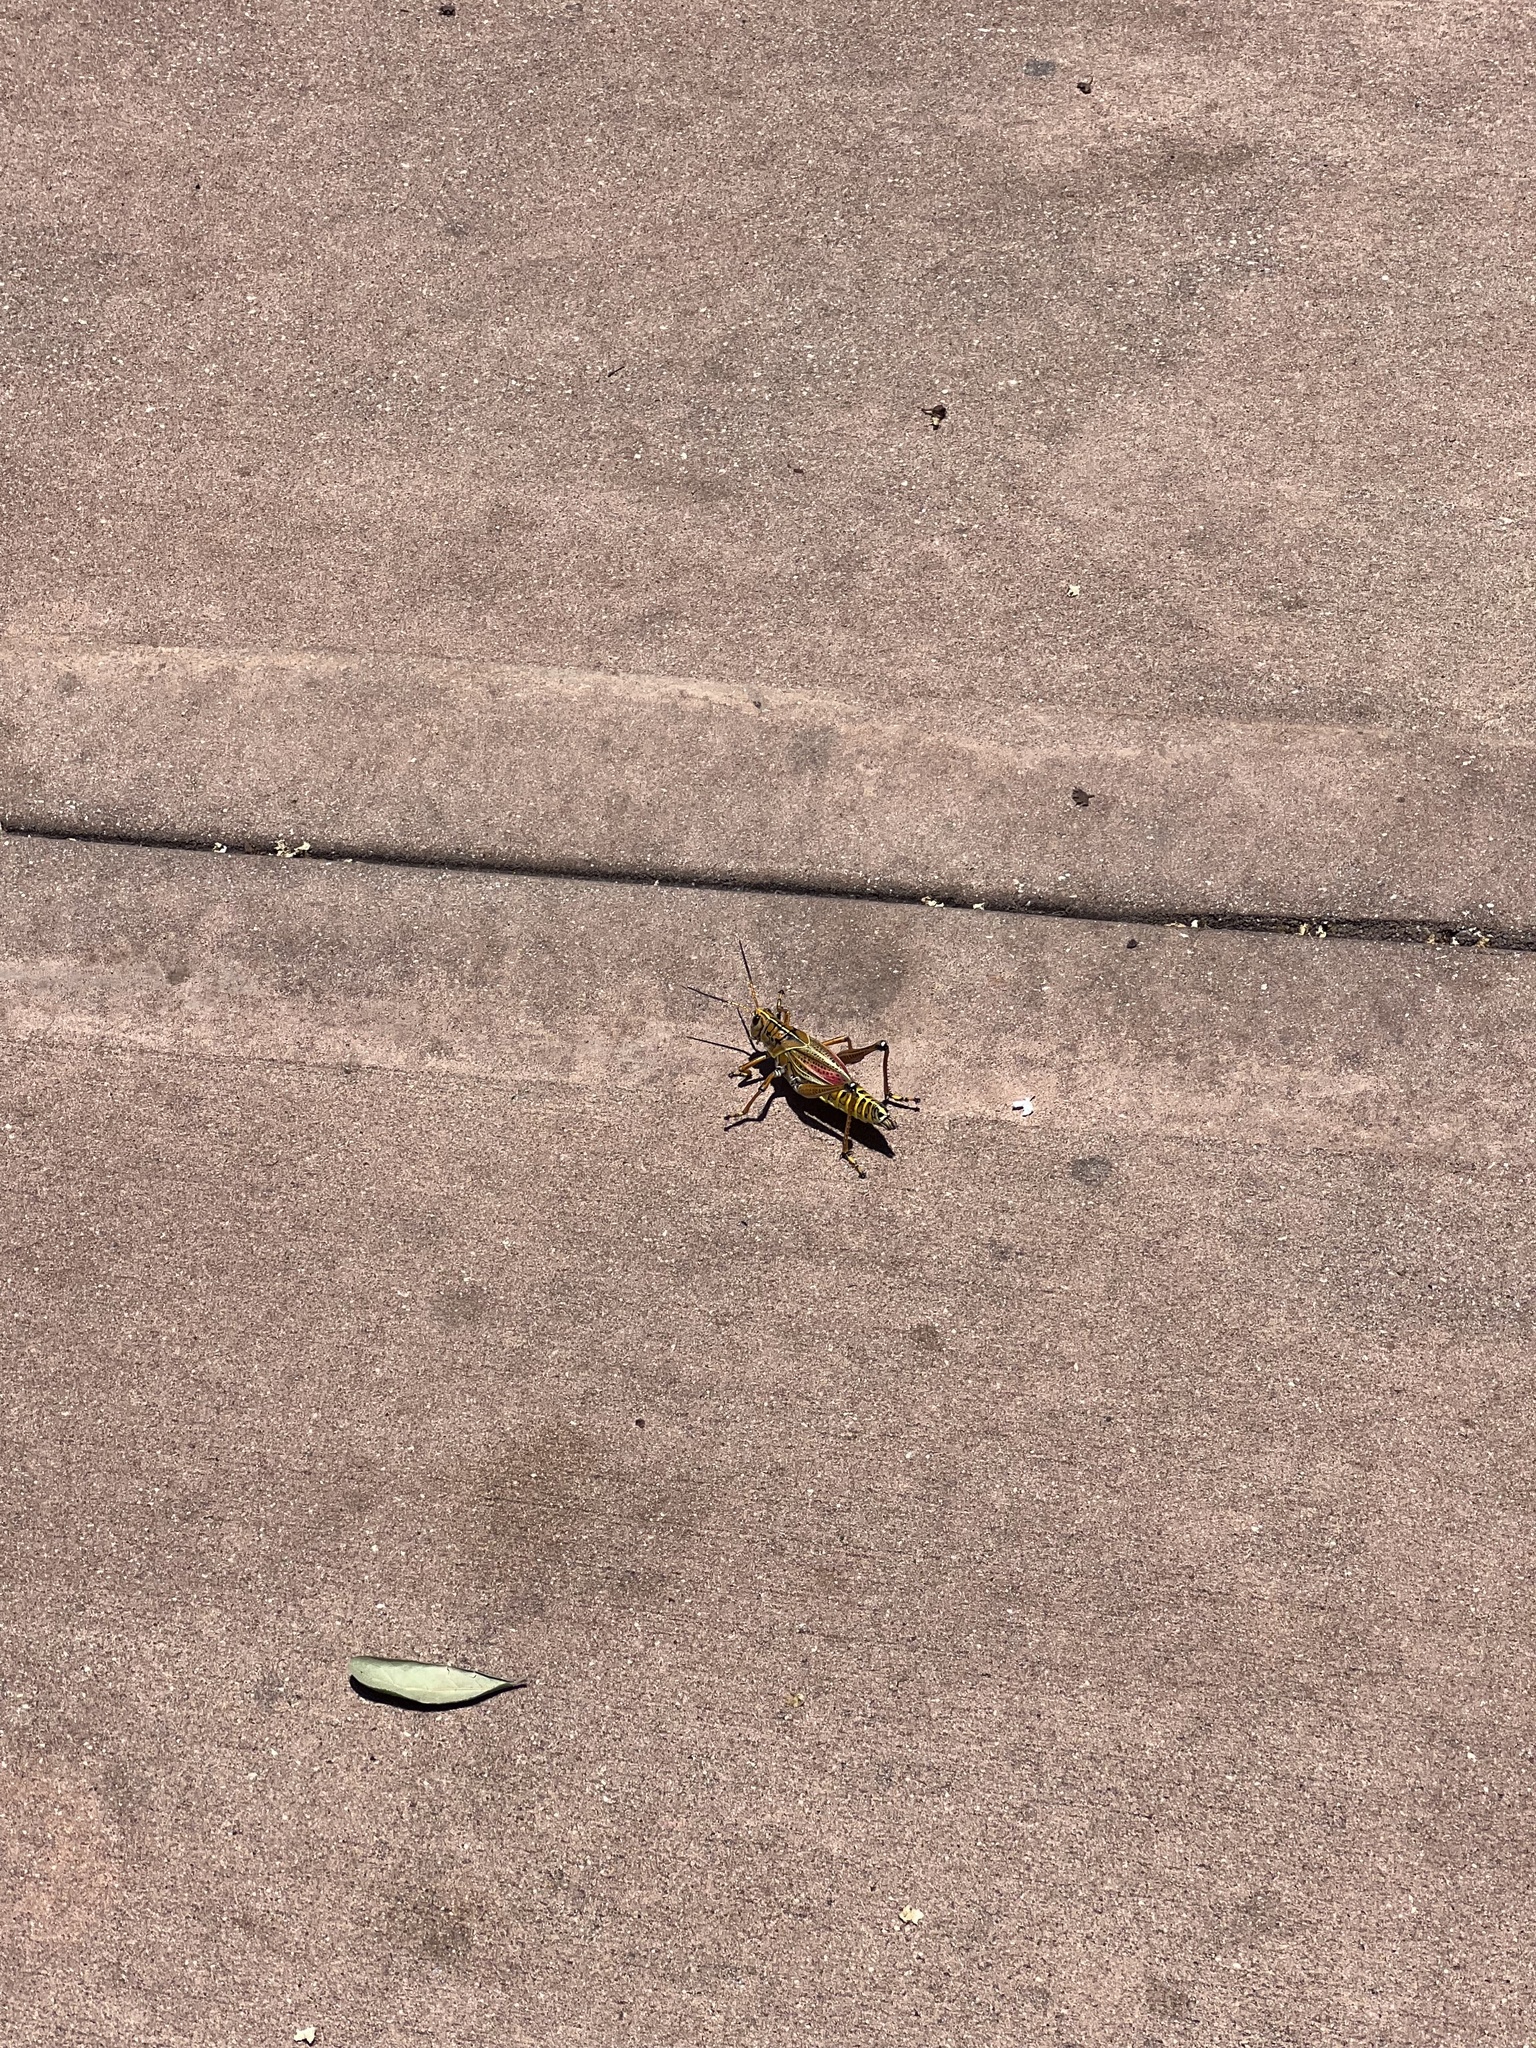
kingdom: Animalia
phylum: Arthropoda
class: Insecta
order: Orthoptera
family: Romaleidae
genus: Romalea
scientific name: Romalea microptera
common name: Eastern lubber grasshopper
